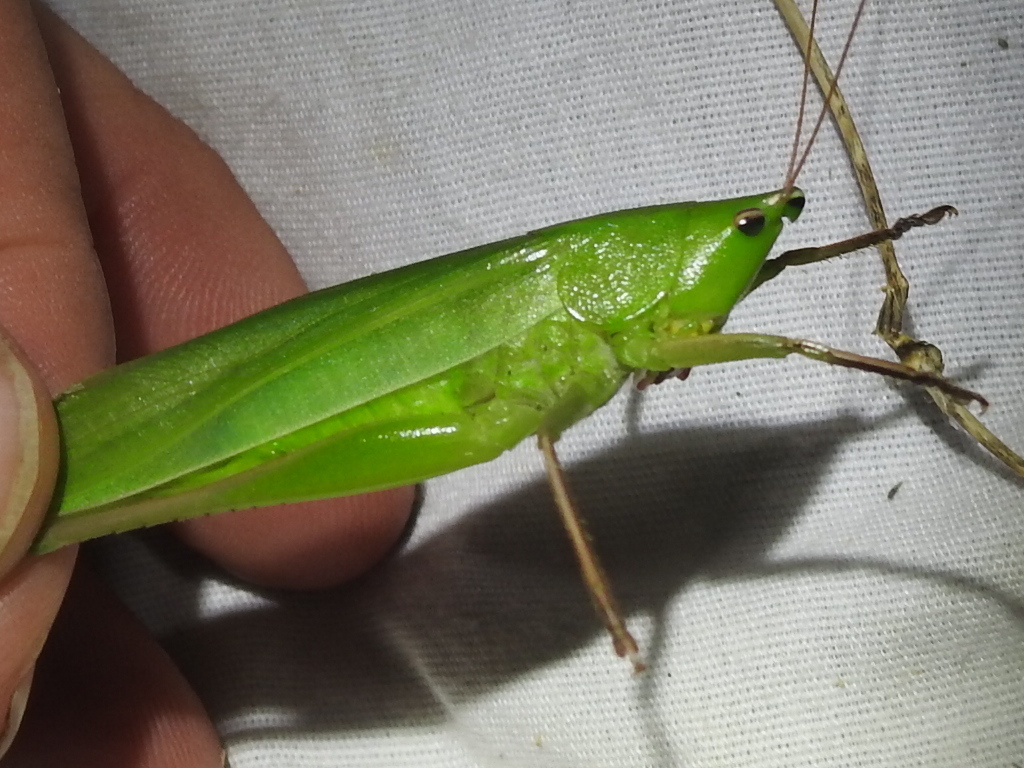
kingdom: Animalia
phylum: Arthropoda
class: Insecta
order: Orthoptera
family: Tettigoniidae
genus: Neoconocephalus
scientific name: Neoconocephalus triops
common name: Broad-tipped conehead
